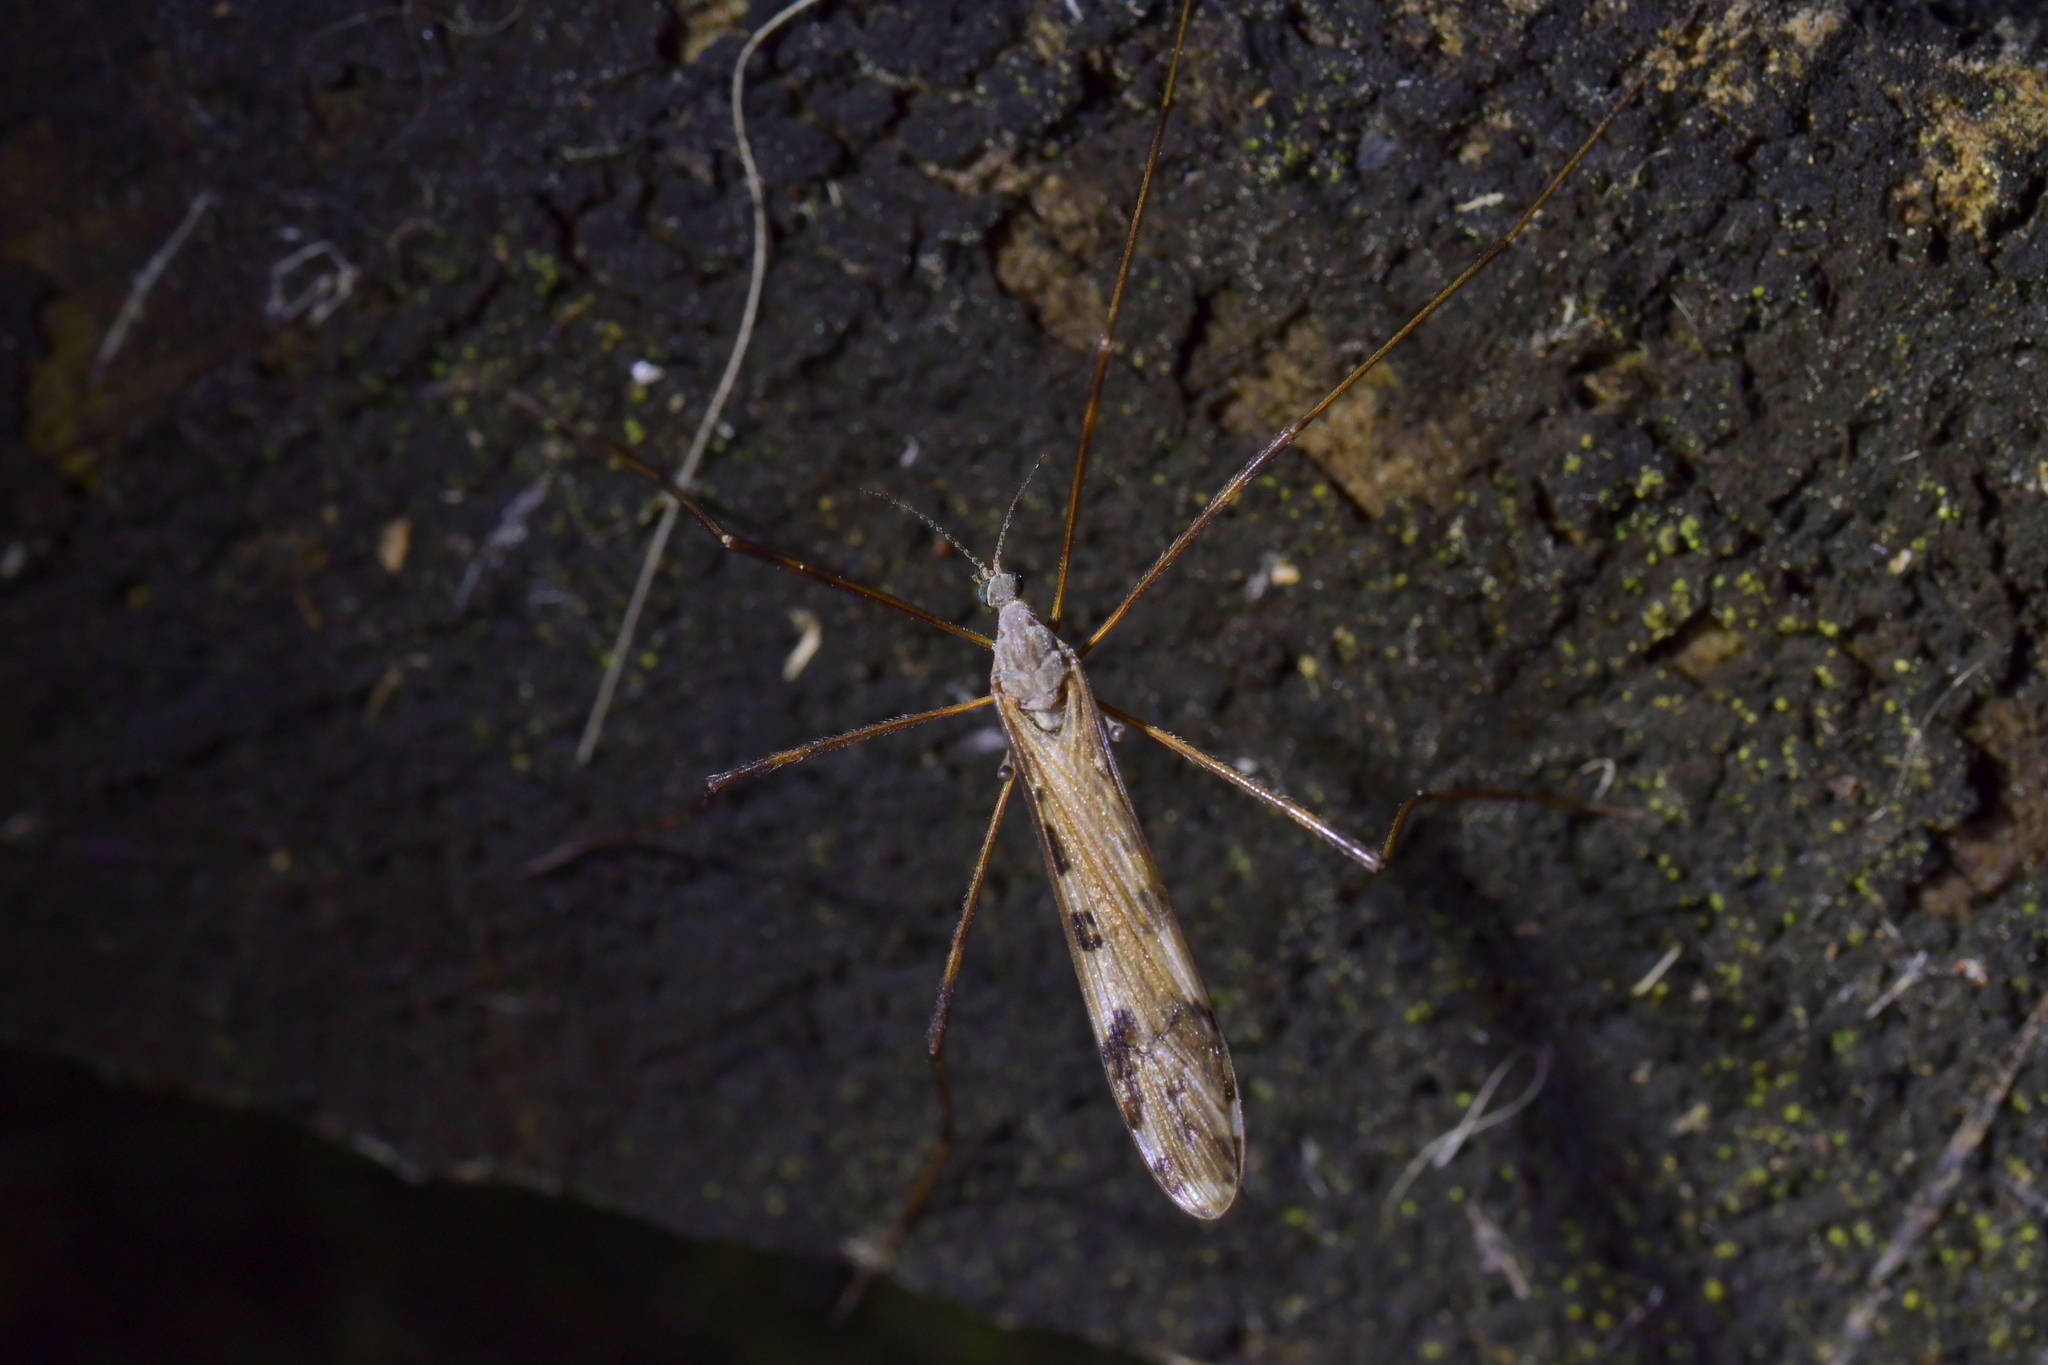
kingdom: Animalia
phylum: Arthropoda
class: Insecta
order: Diptera
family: Limoniidae
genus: Paralimnophila
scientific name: Paralimnophila skusei
